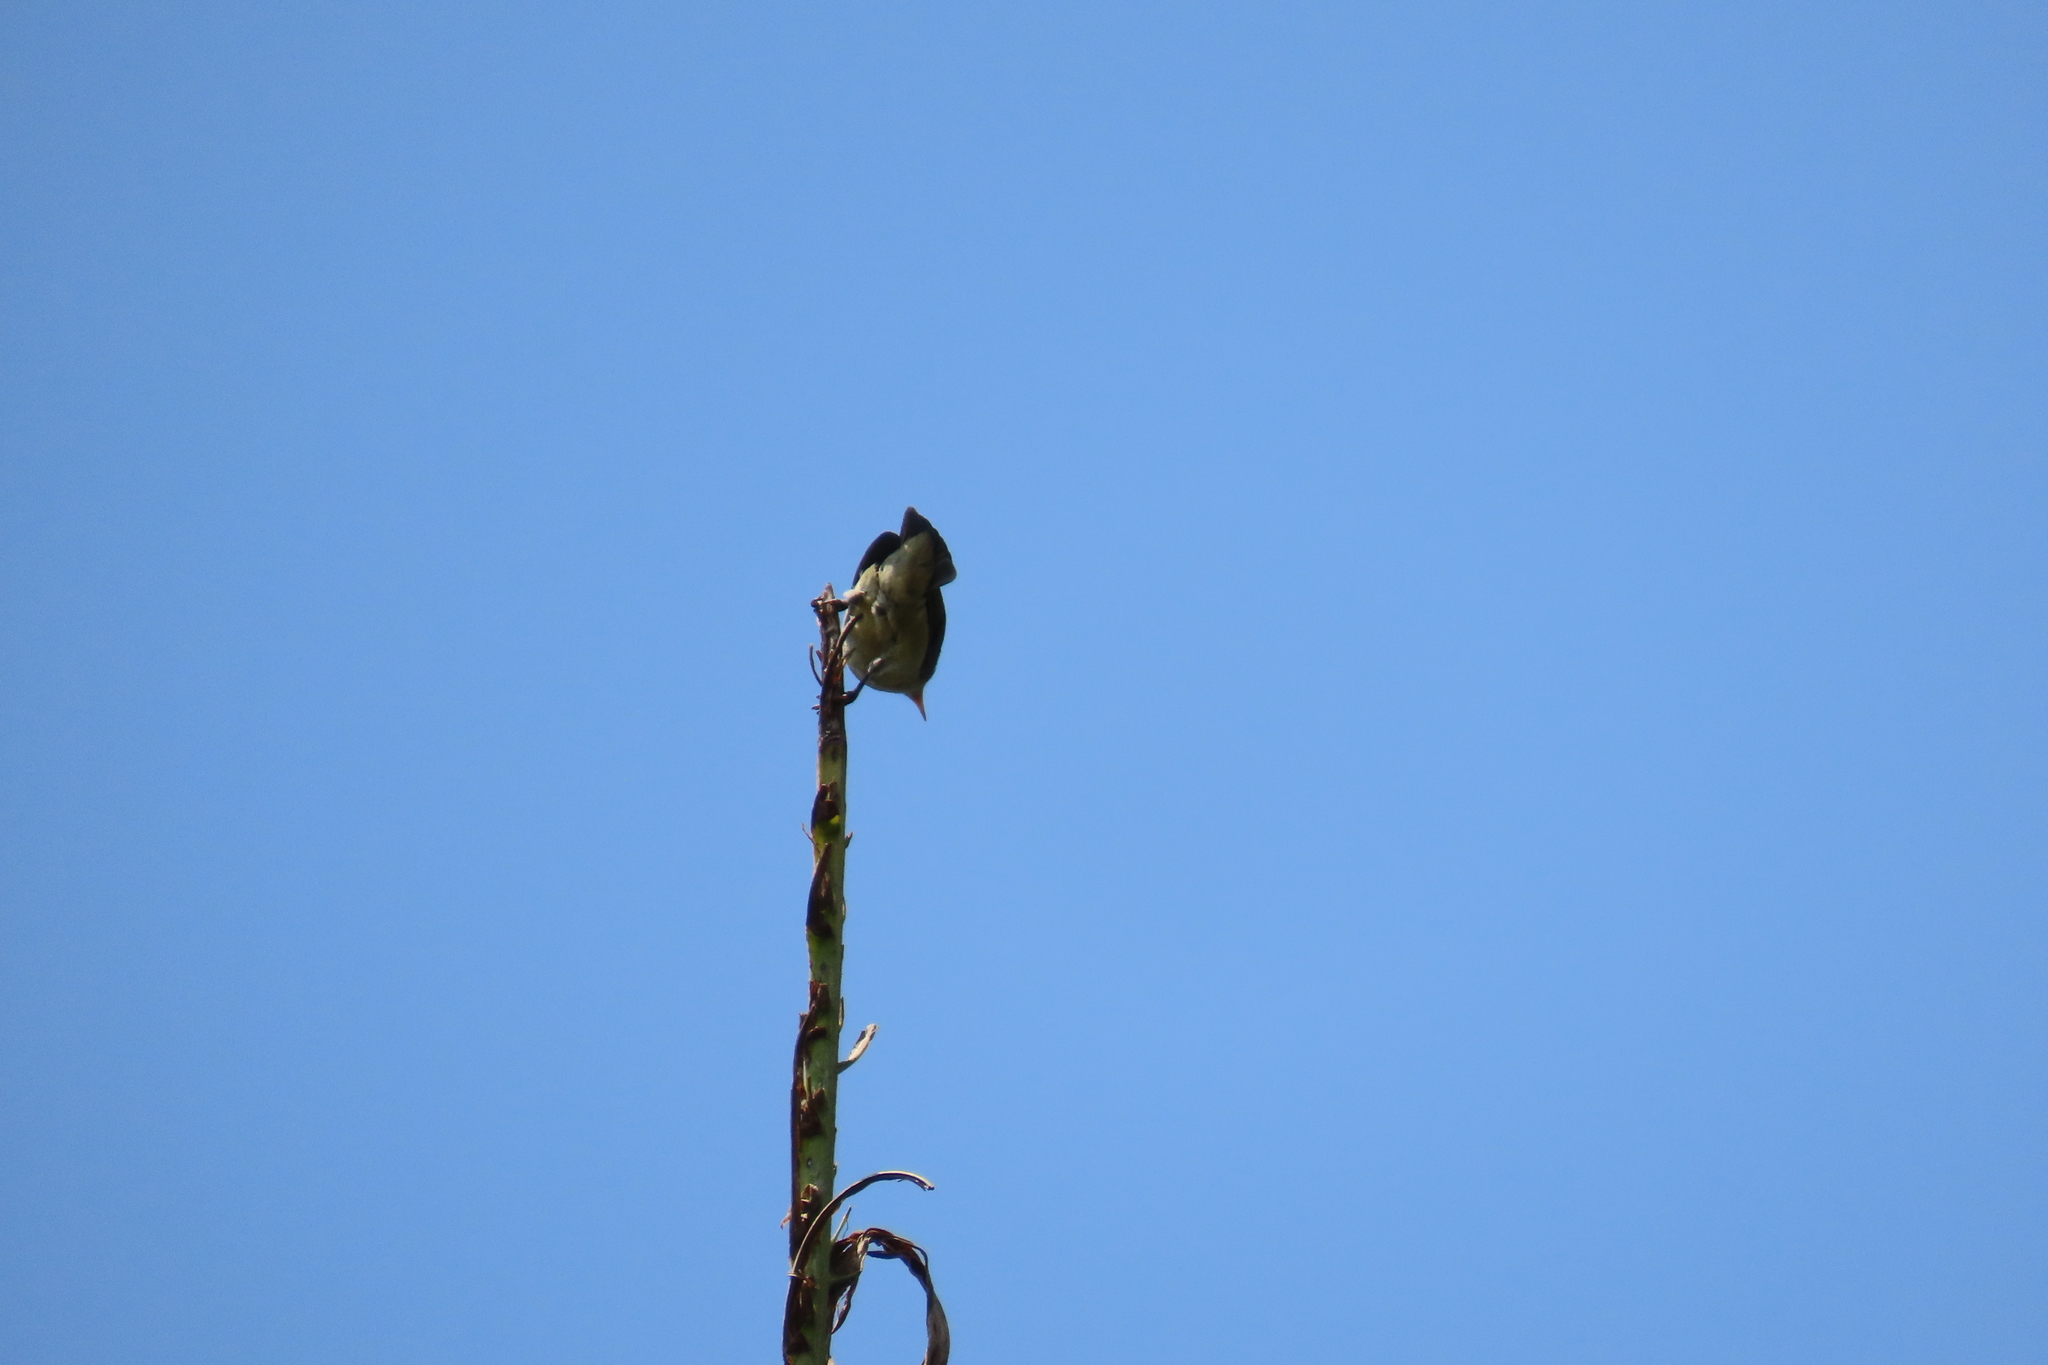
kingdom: Animalia
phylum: Chordata
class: Aves
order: Passeriformes
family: Dicaeidae
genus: Dicaeum
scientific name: Dicaeum erythrorhynchos
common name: Pale-billed flowerpecker
